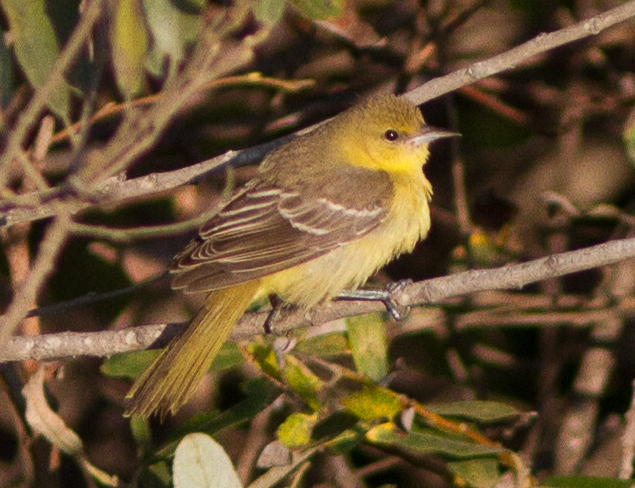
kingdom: Animalia
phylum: Chordata
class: Aves
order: Passeriformes
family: Icteridae
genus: Icterus
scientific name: Icterus spurius
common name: Orchard oriole
